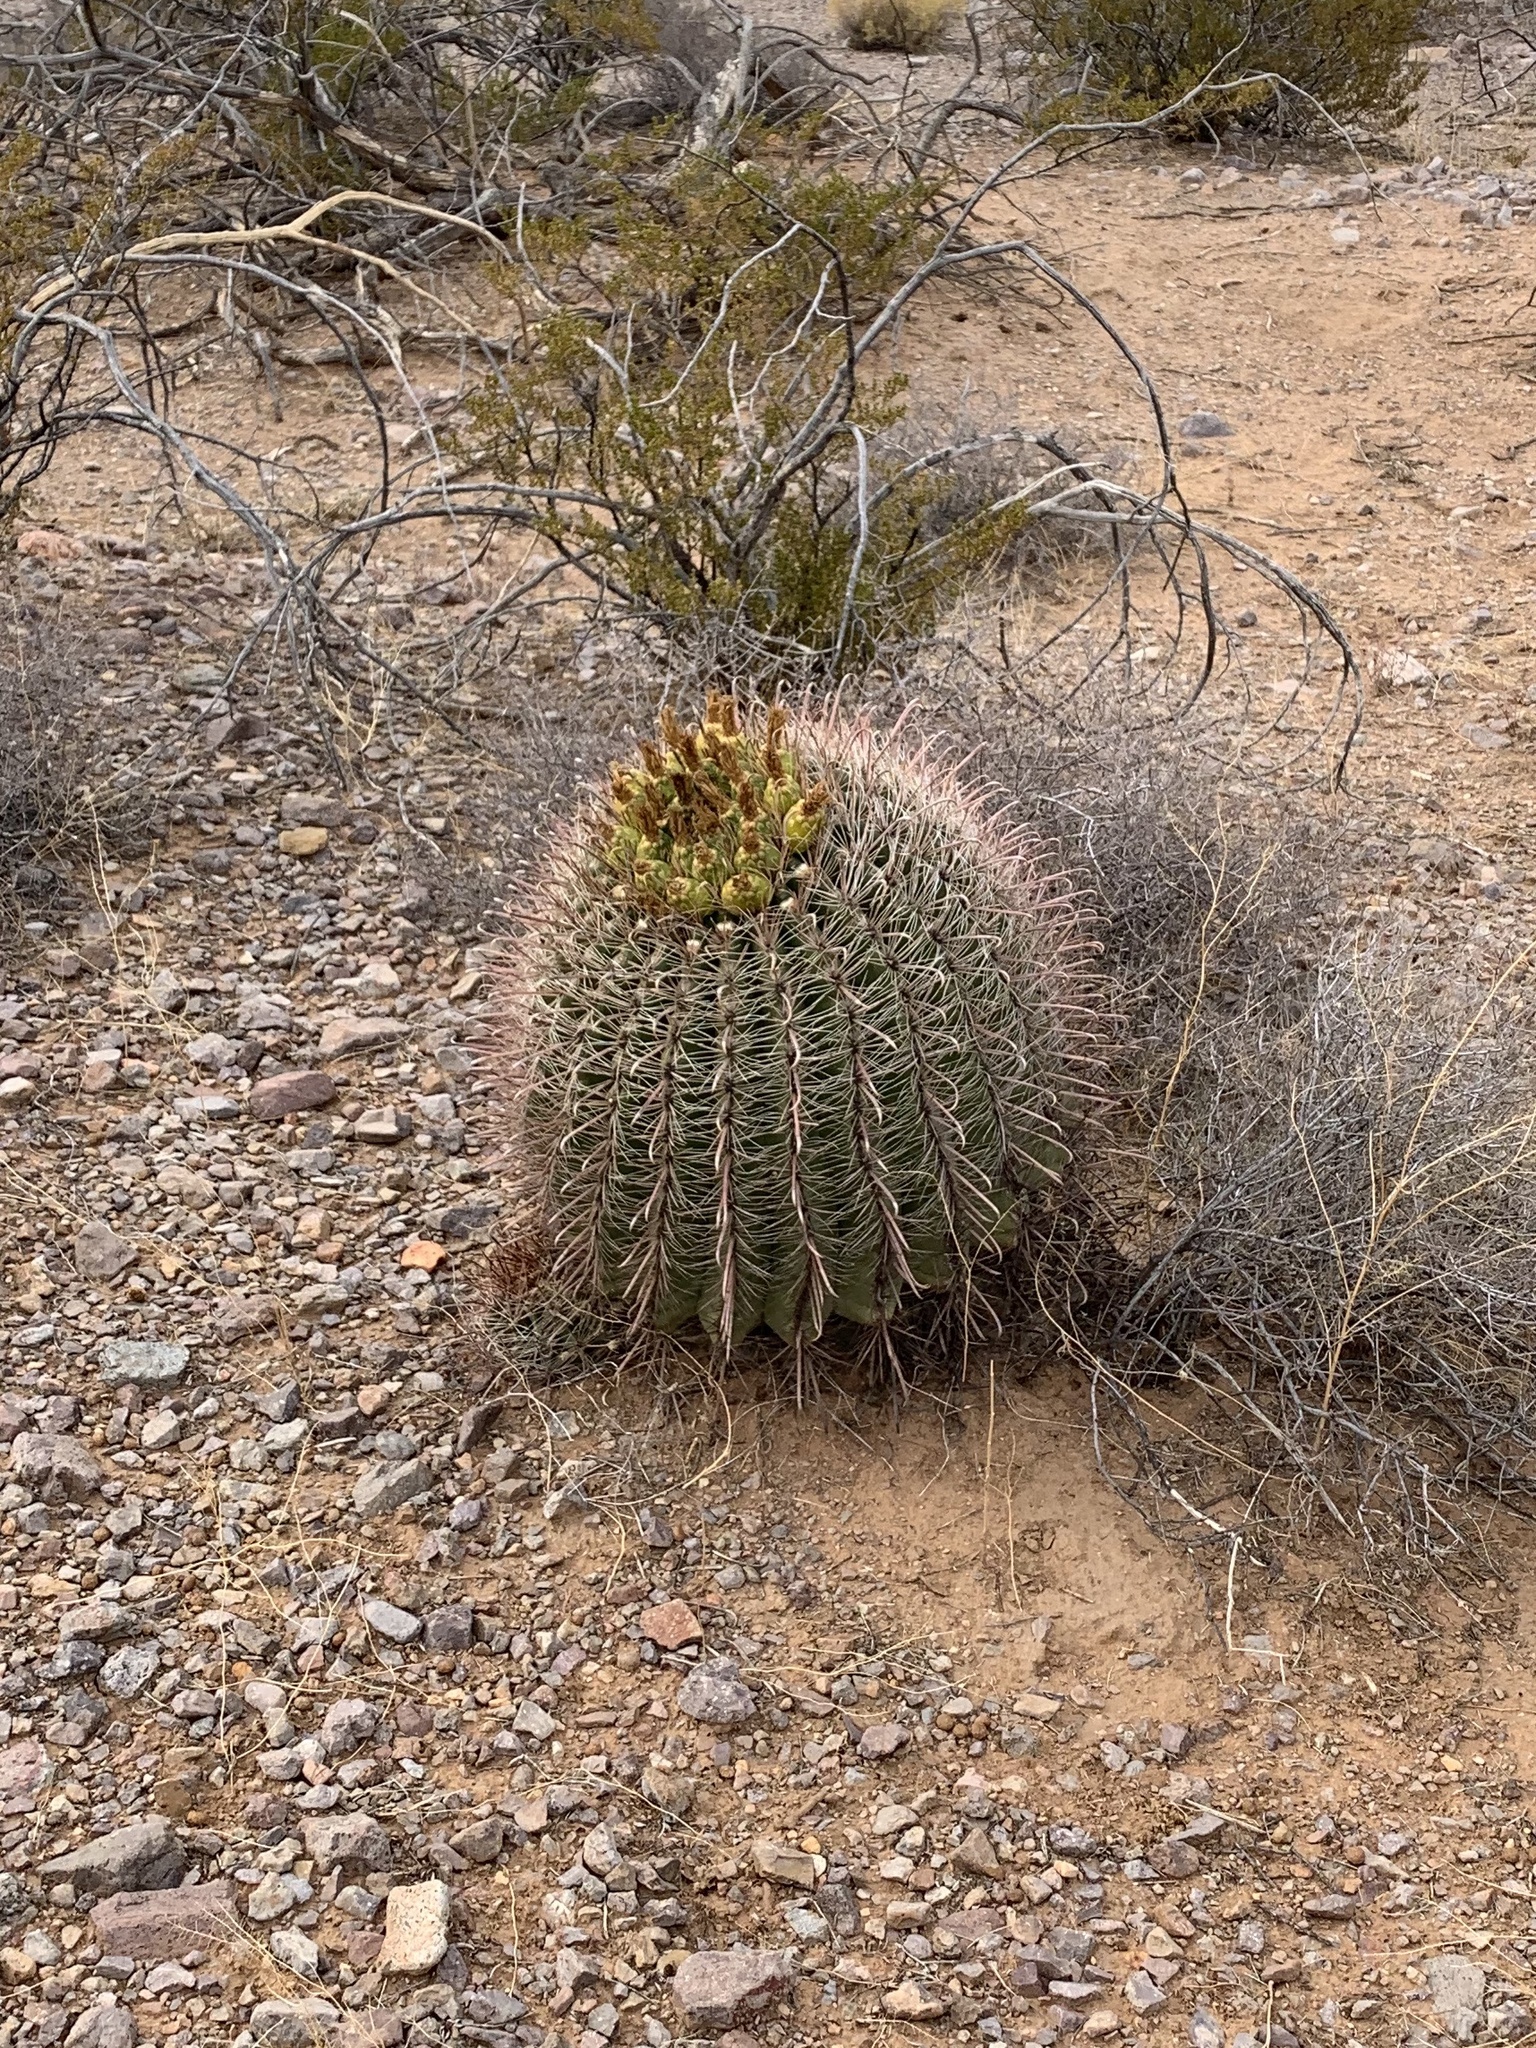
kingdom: Plantae
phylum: Tracheophyta
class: Magnoliopsida
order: Caryophyllales
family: Cactaceae
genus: Ferocactus
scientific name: Ferocactus wislizeni
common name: Candy barrel cactus
